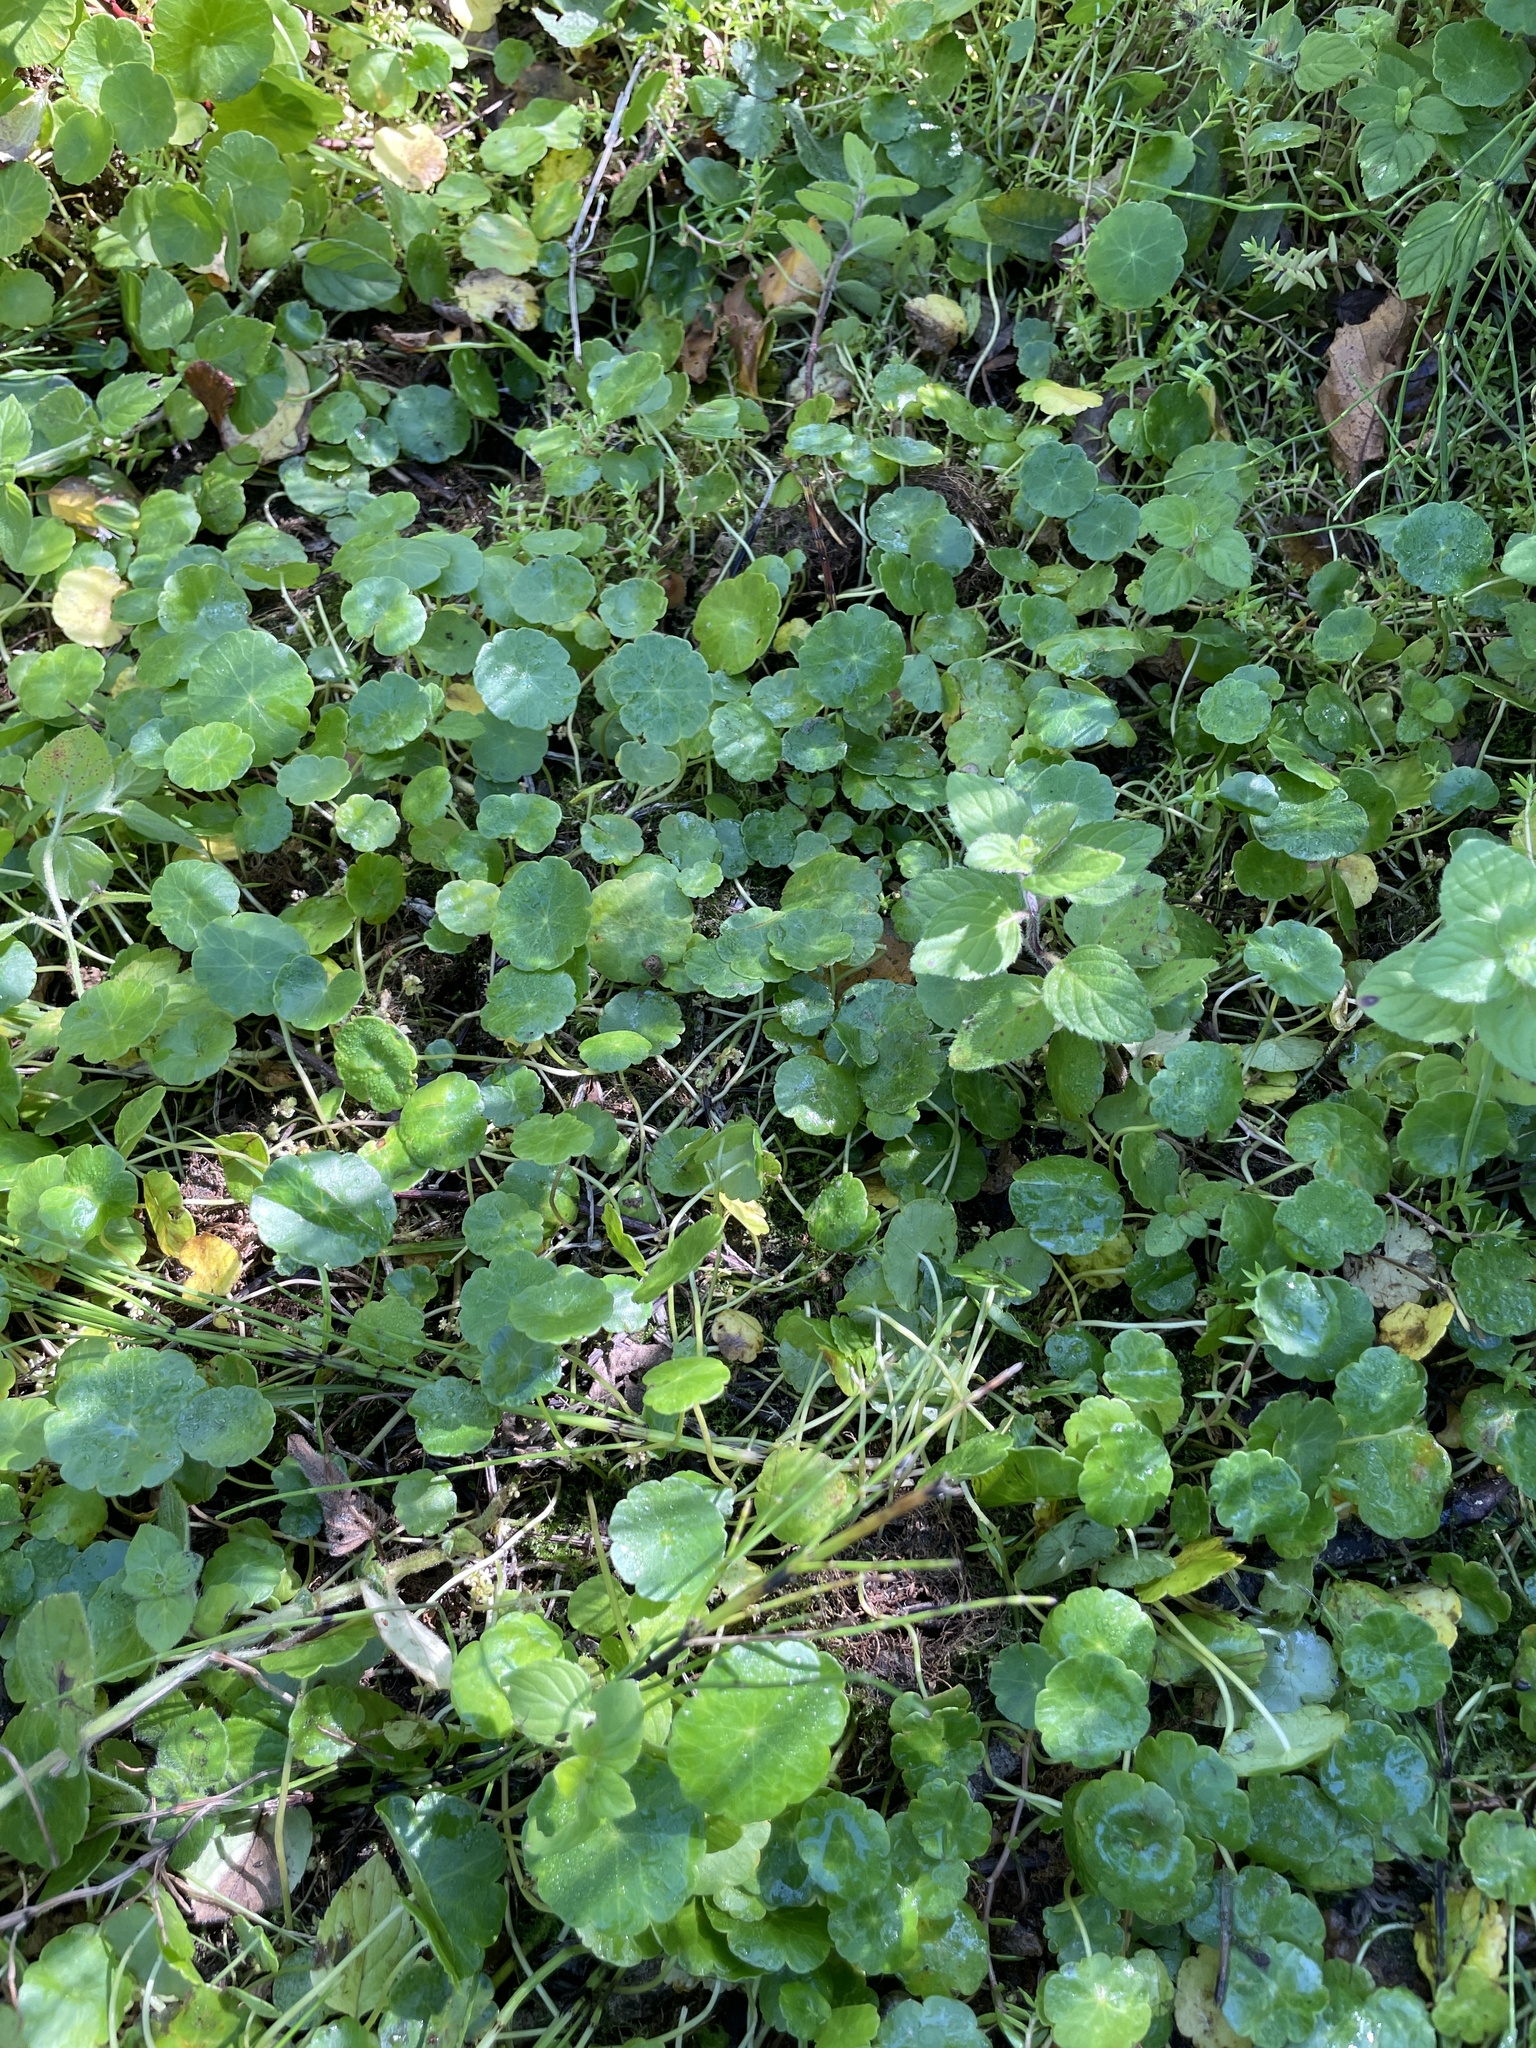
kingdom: Plantae
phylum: Tracheophyta
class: Magnoliopsida
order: Apiales
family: Araliaceae
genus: Hydrocotyle
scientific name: Hydrocotyle vulgaris
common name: Marsh pennywort
